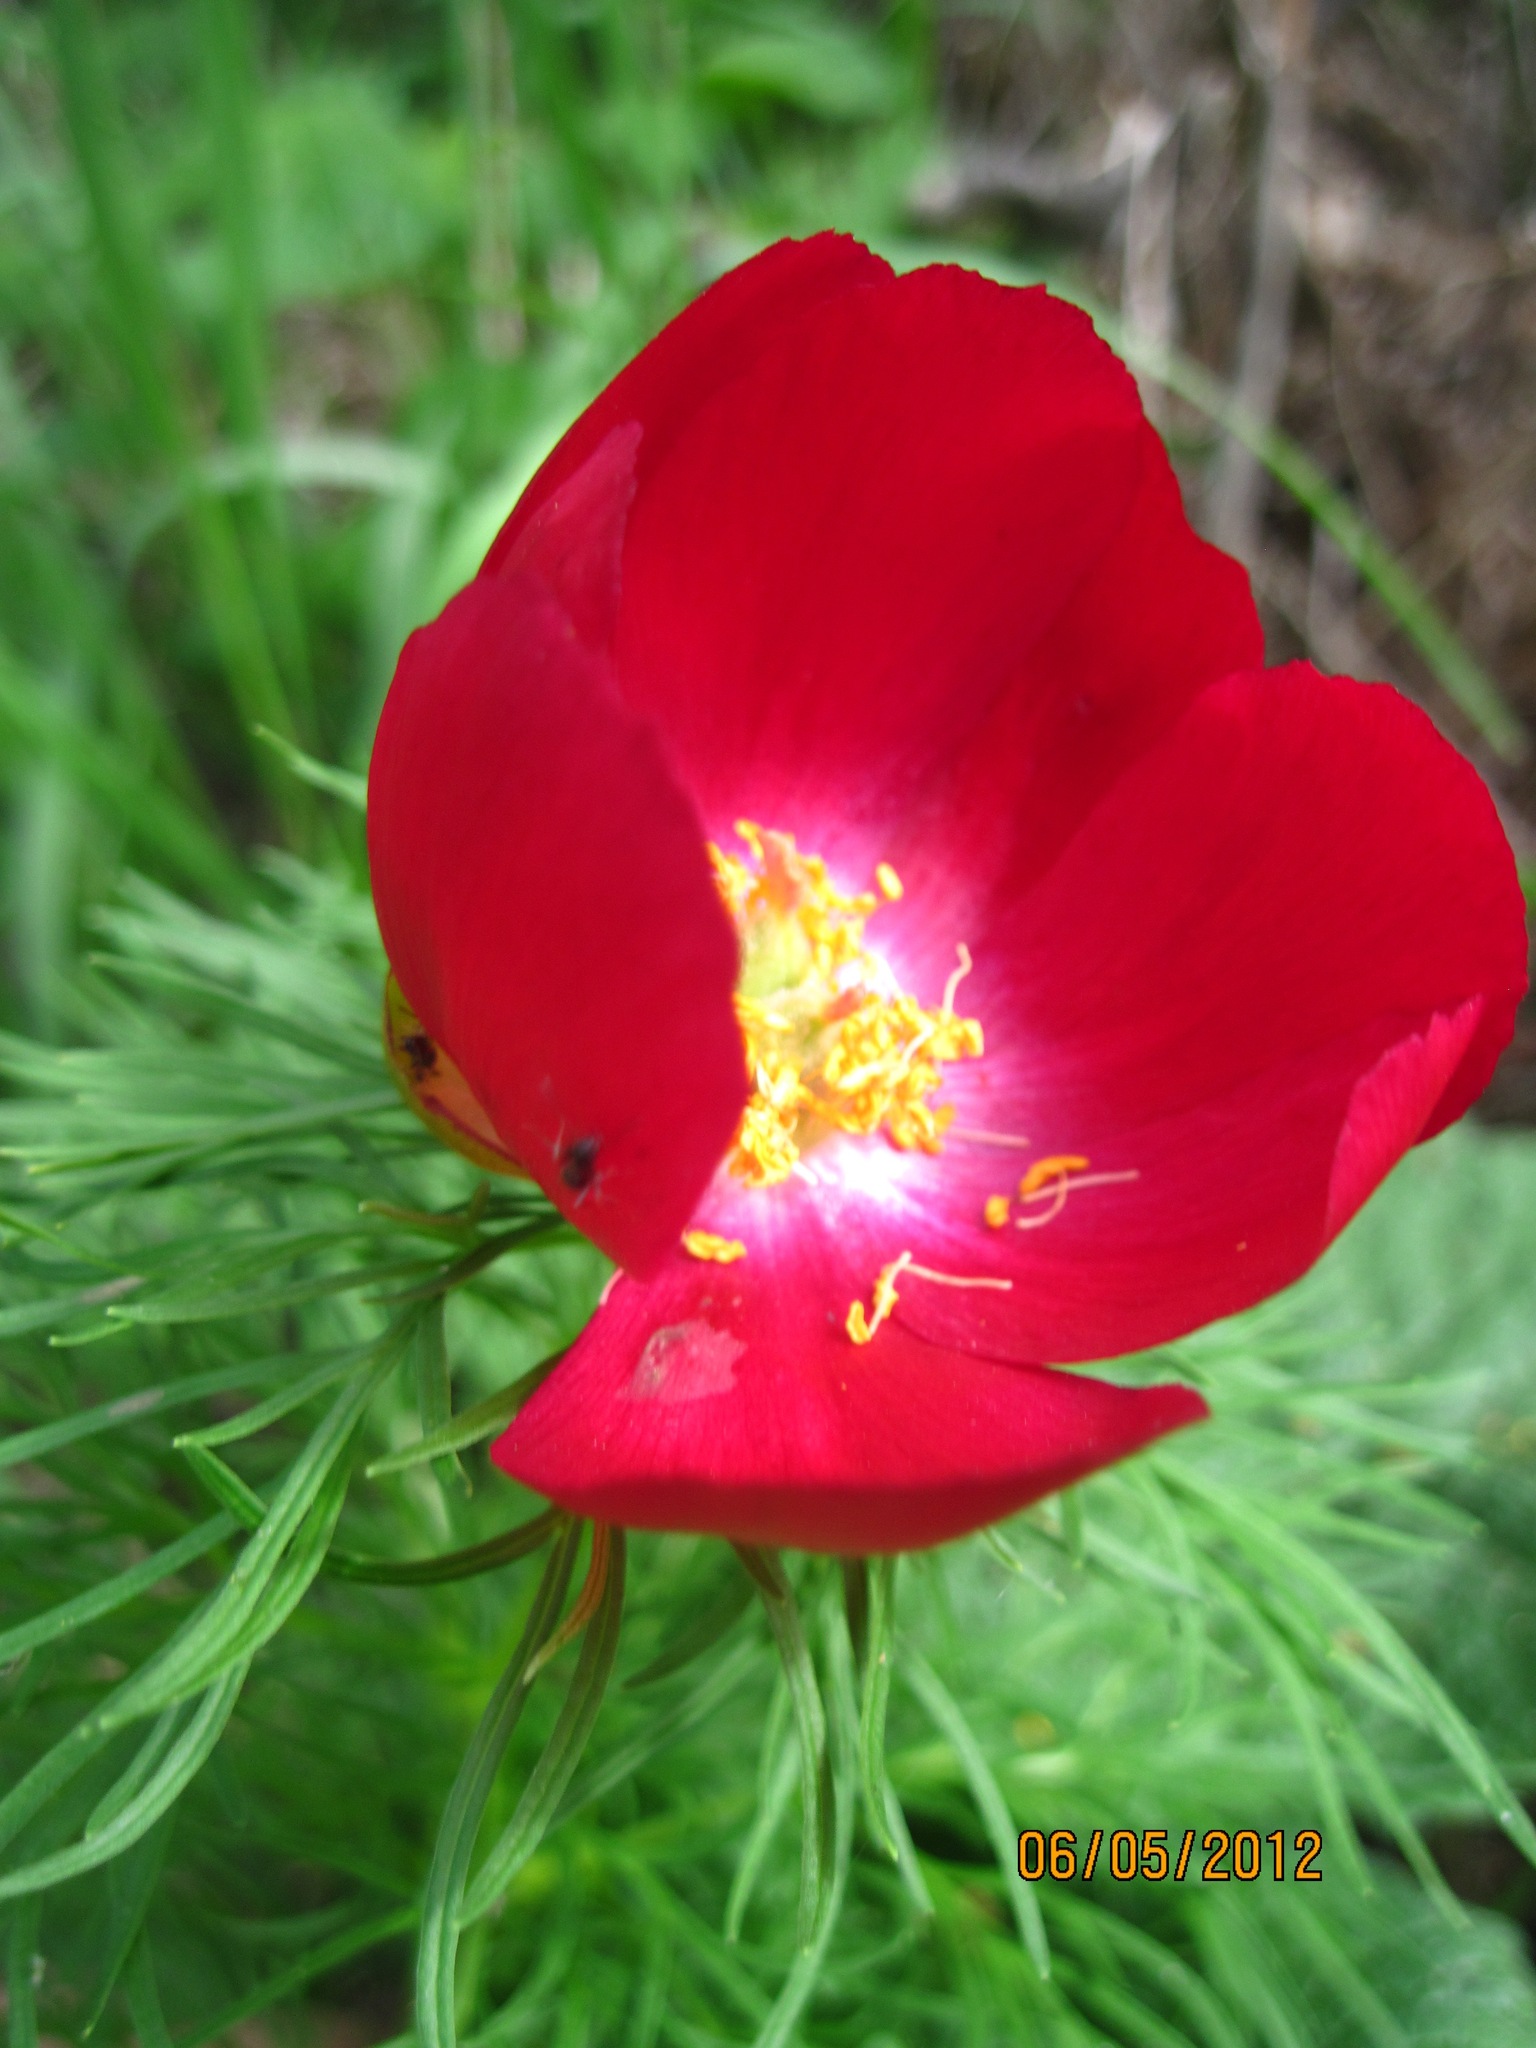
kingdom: Plantae
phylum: Tracheophyta
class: Magnoliopsida
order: Saxifragales
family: Paeoniaceae
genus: Paeonia
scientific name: Paeonia tenuifolia
